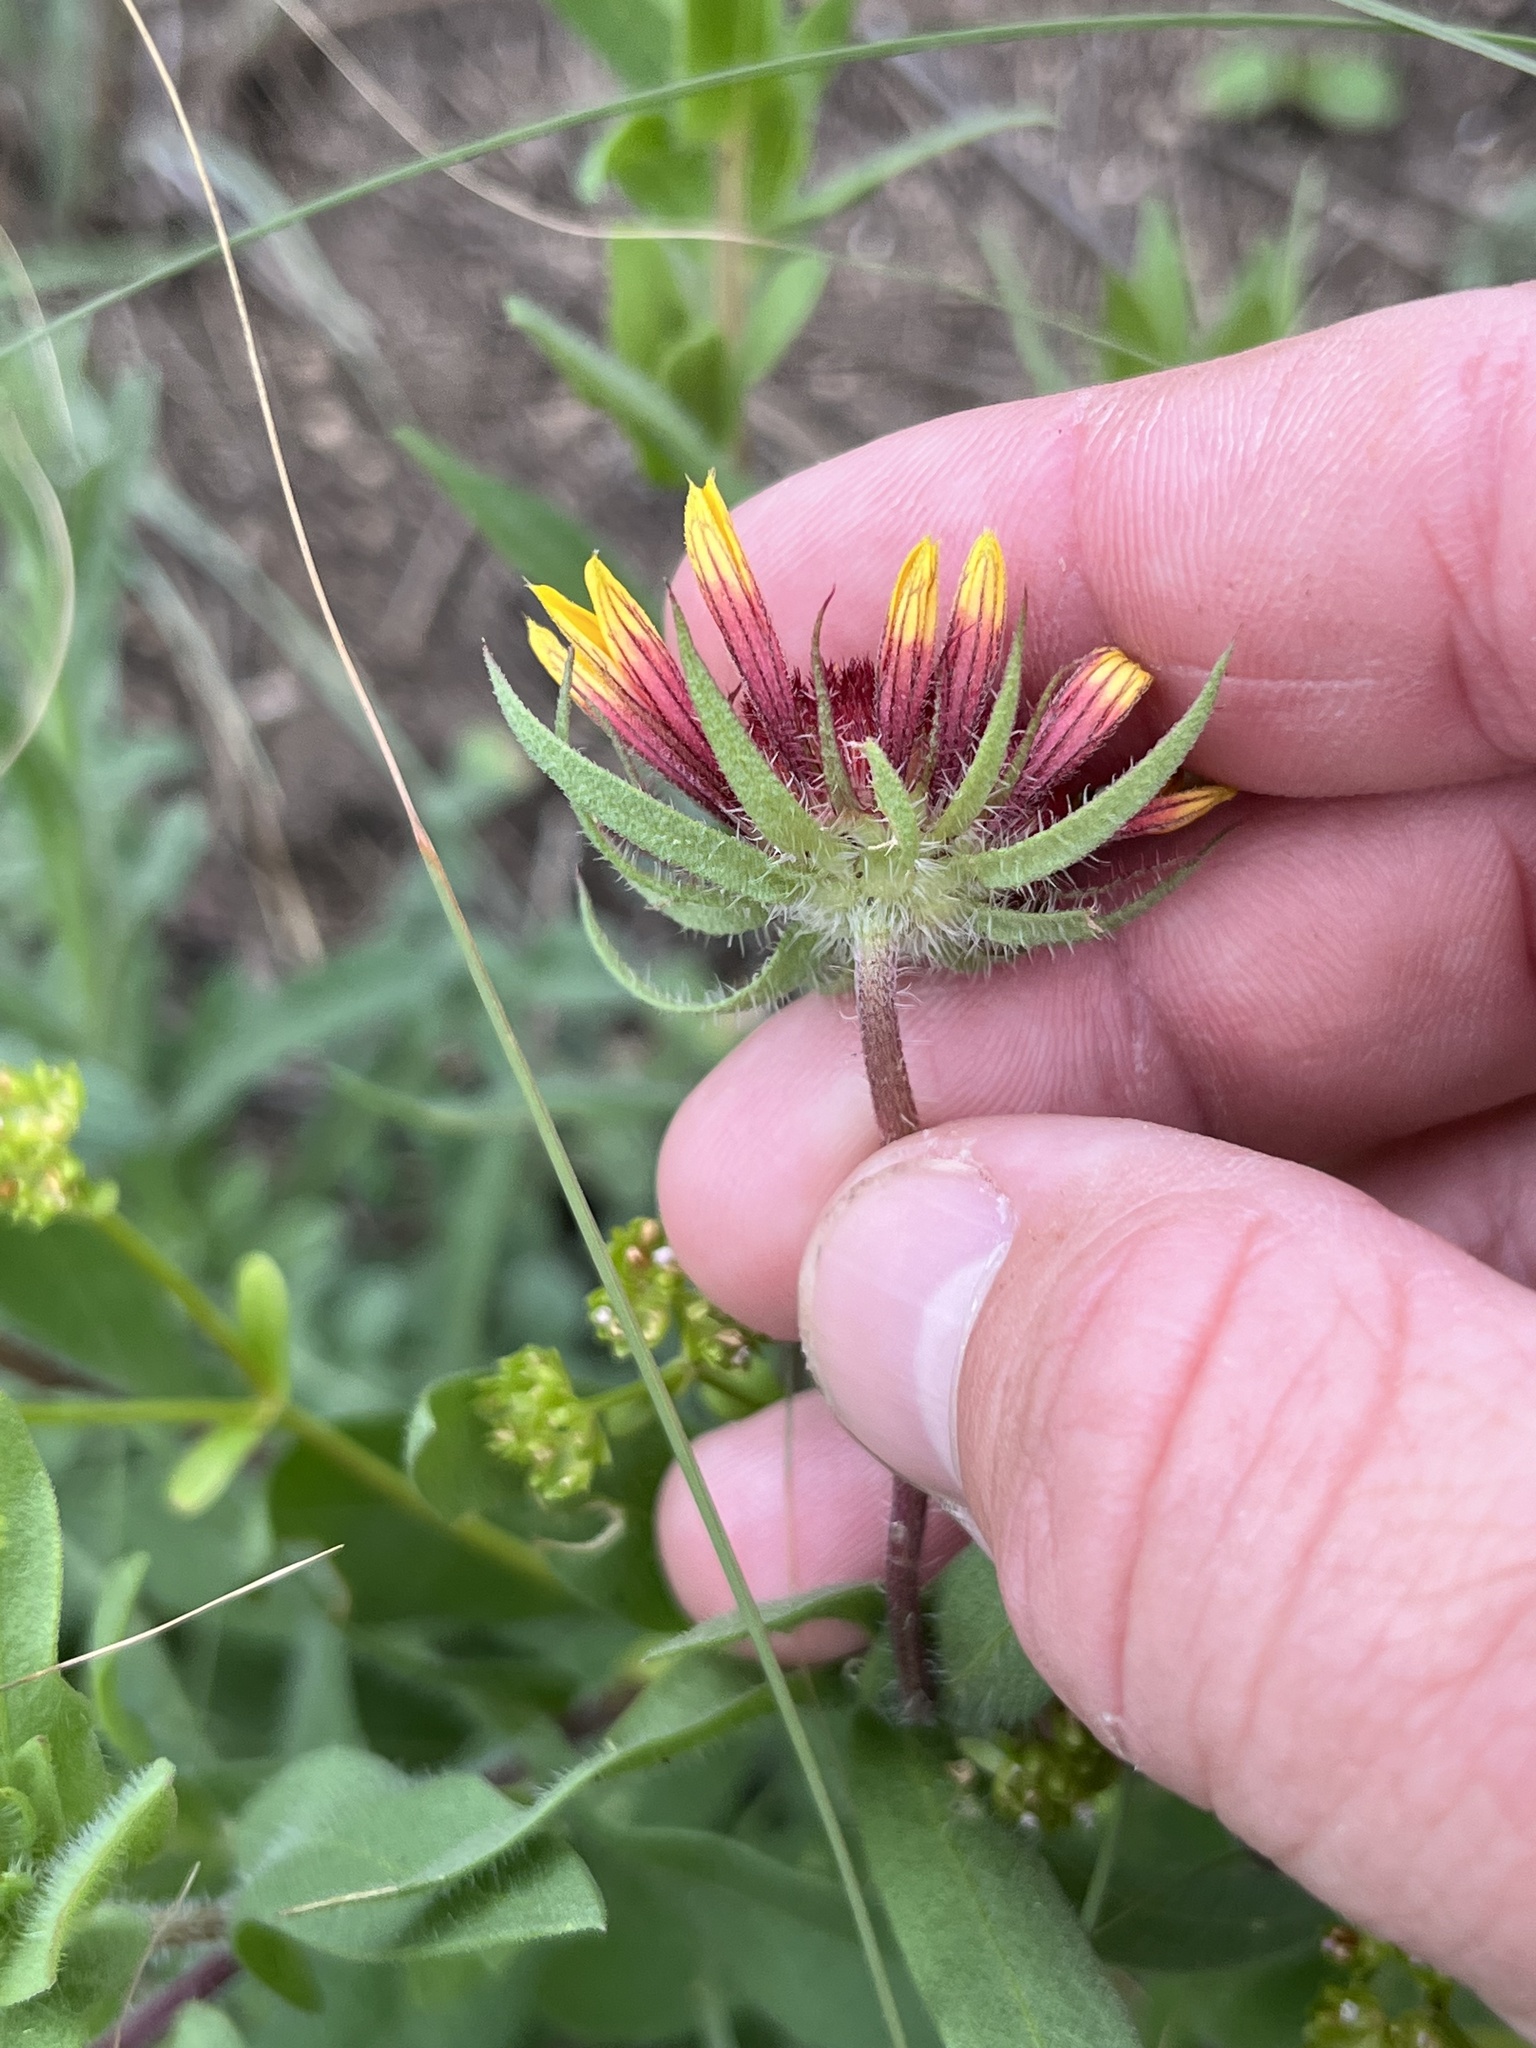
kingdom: Plantae
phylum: Tracheophyta
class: Magnoliopsida
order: Asterales
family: Asteraceae
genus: Gaillardia
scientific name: Gaillardia pulchella
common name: Firewheel
